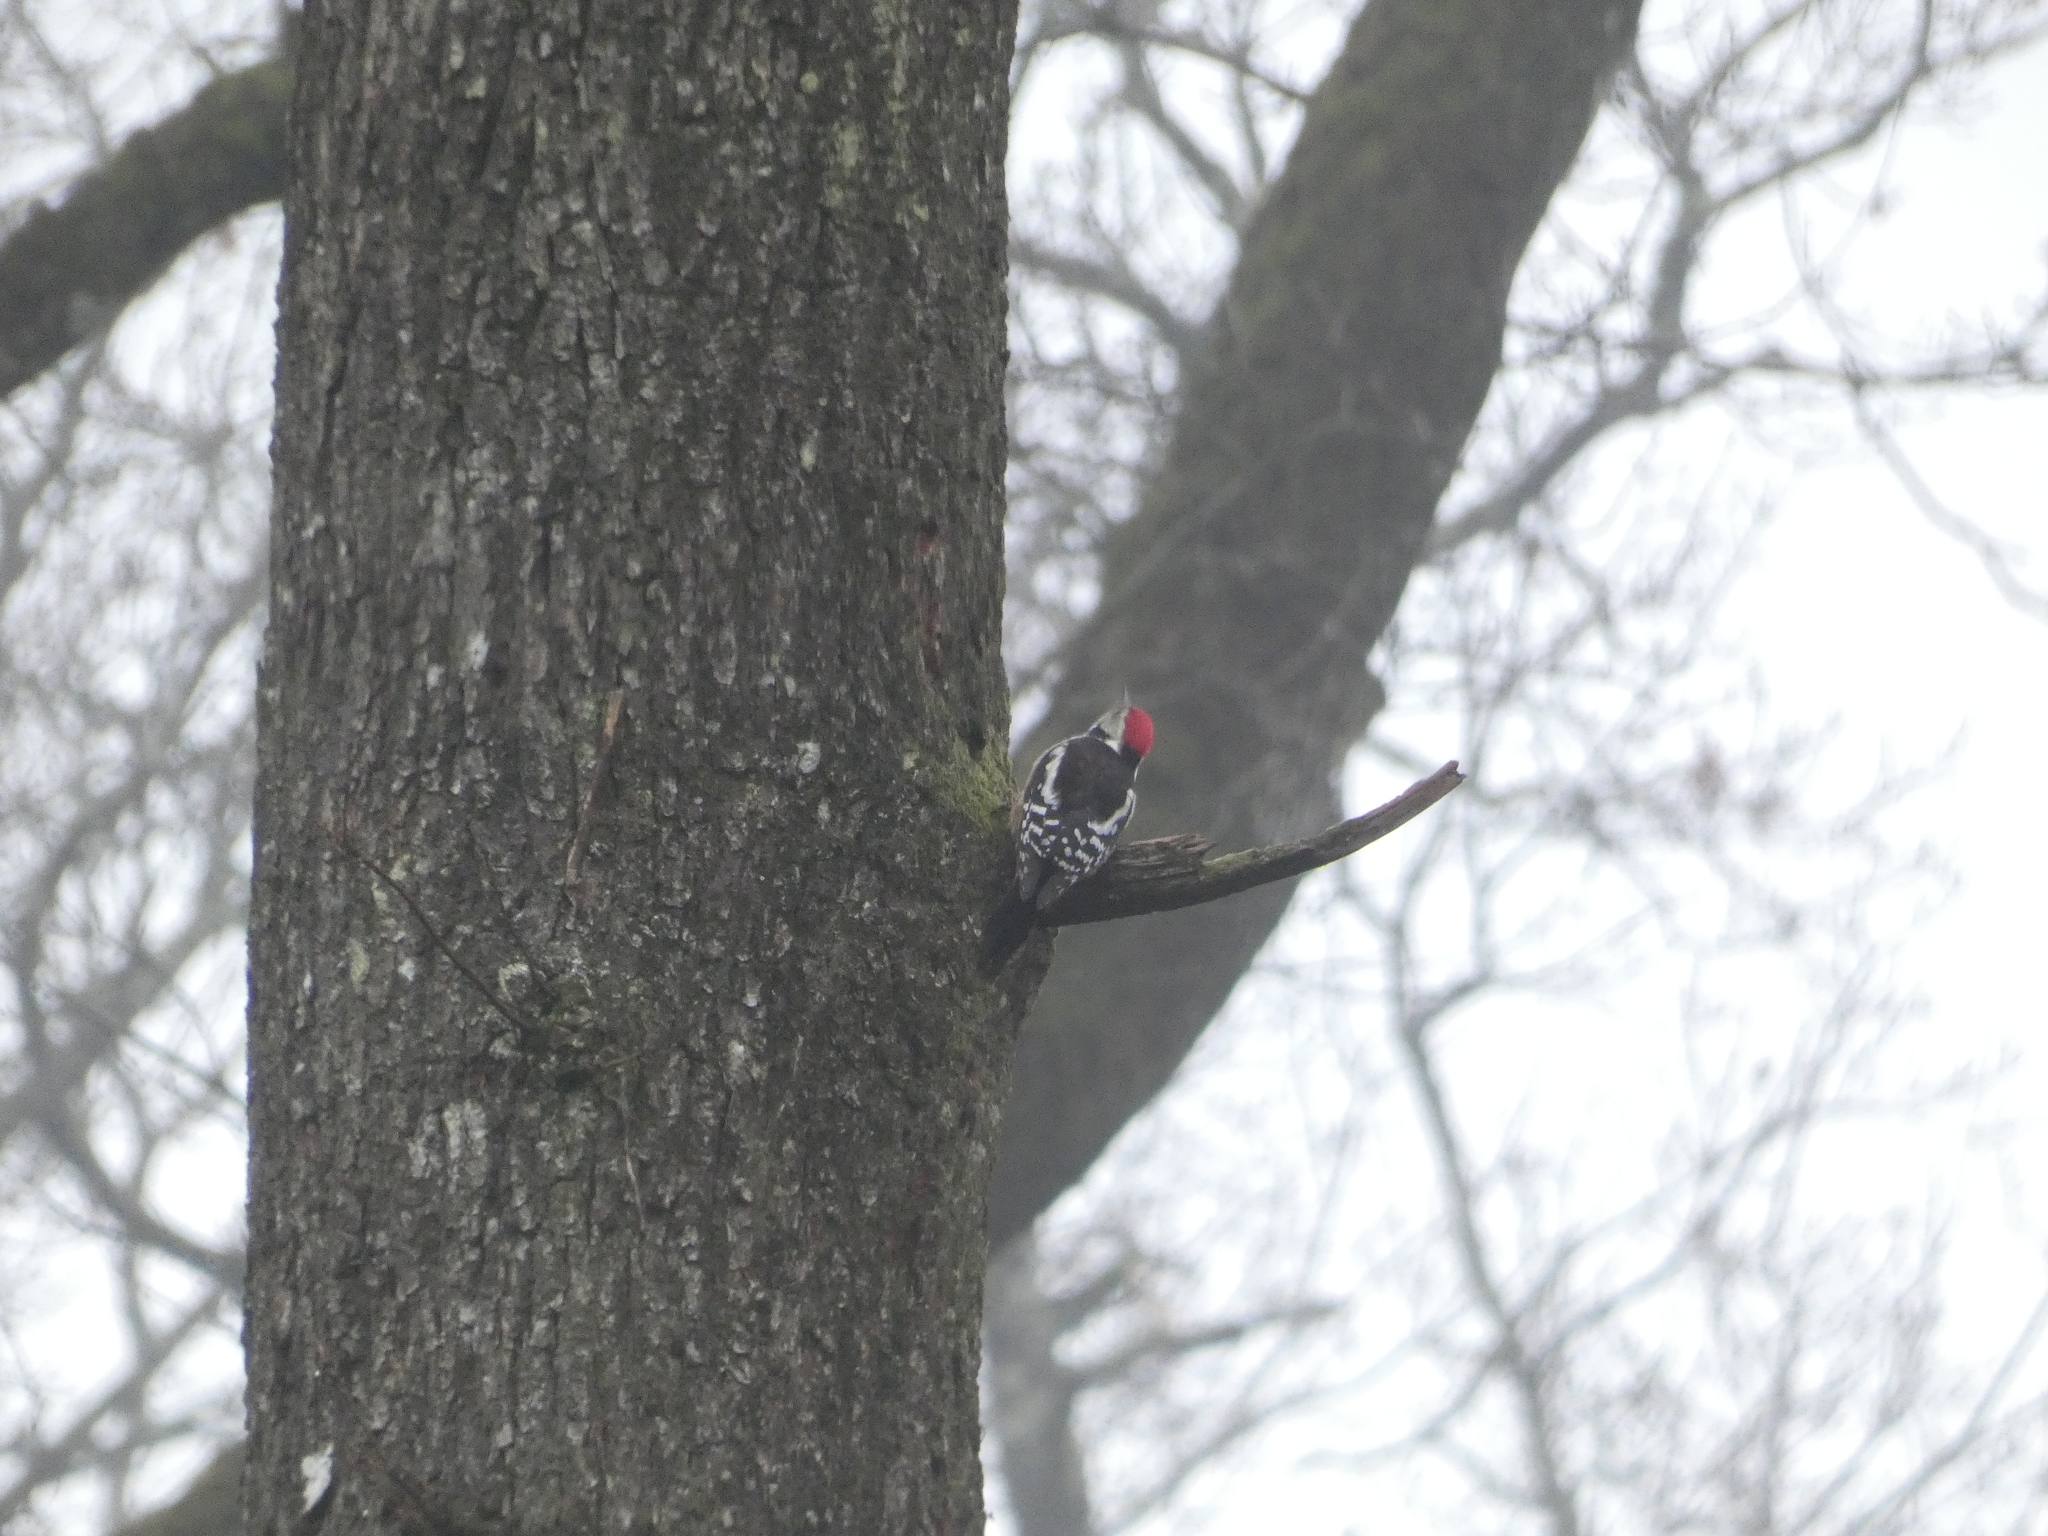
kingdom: Animalia
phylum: Chordata
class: Aves
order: Piciformes
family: Picidae
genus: Dendrocoptes
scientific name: Dendrocoptes medius
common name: Middle spotted woodpecker
